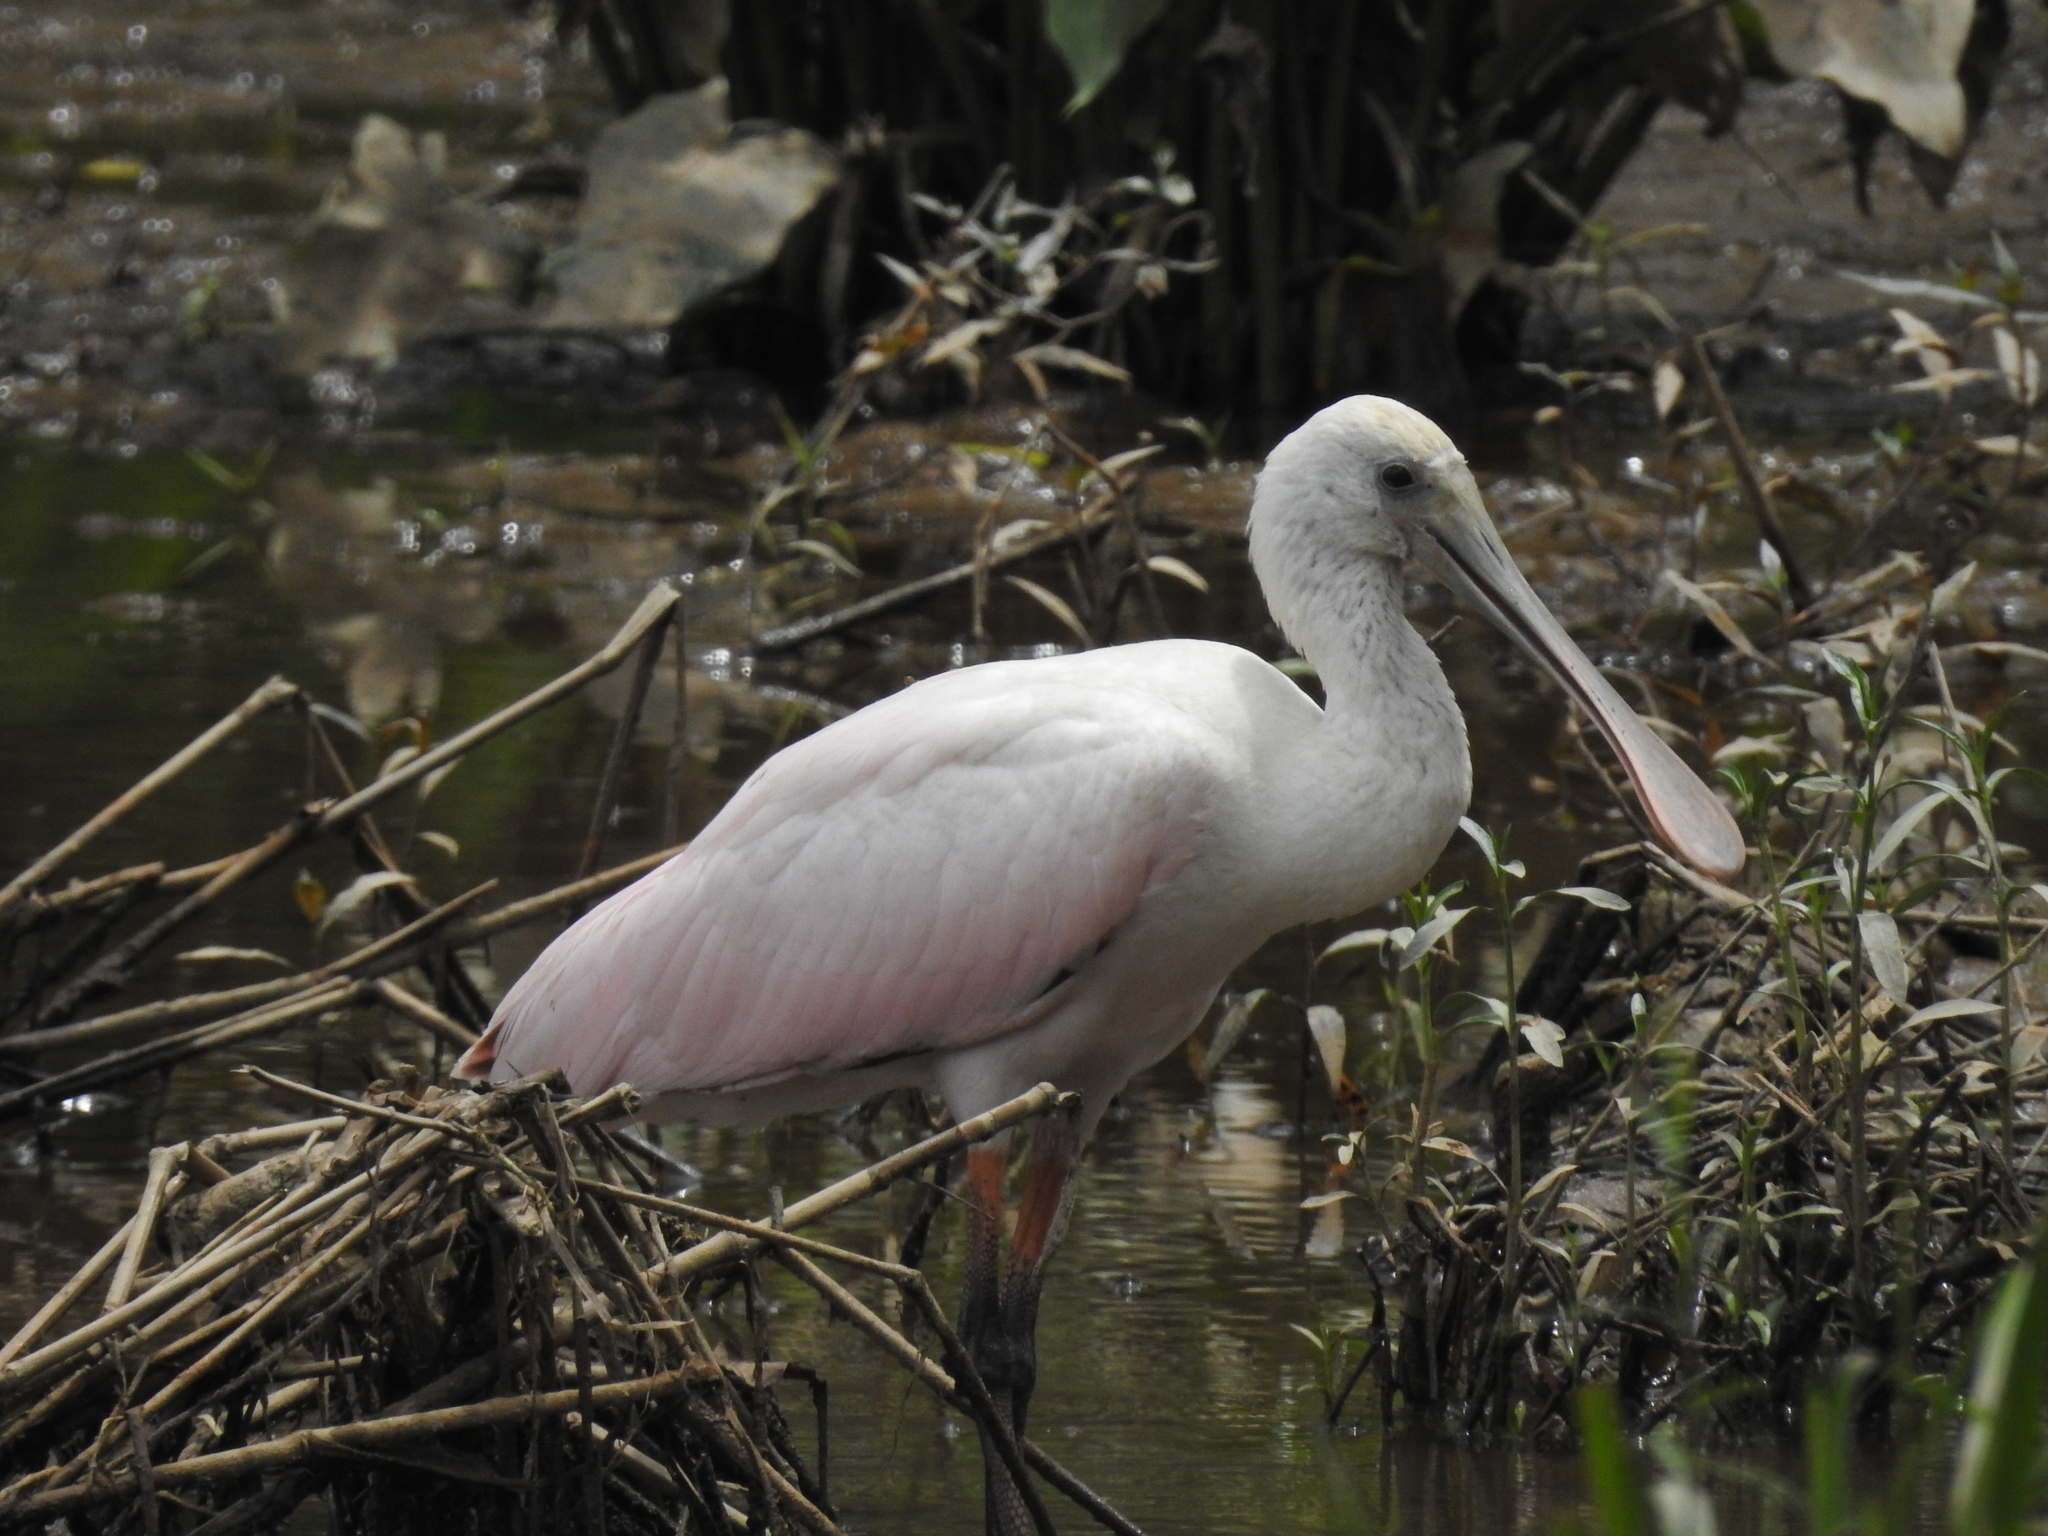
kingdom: Animalia
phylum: Chordata
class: Aves
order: Pelecaniformes
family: Threskiornithidae
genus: Platalea
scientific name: Platalea ajaja
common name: Roseate spoonbill
